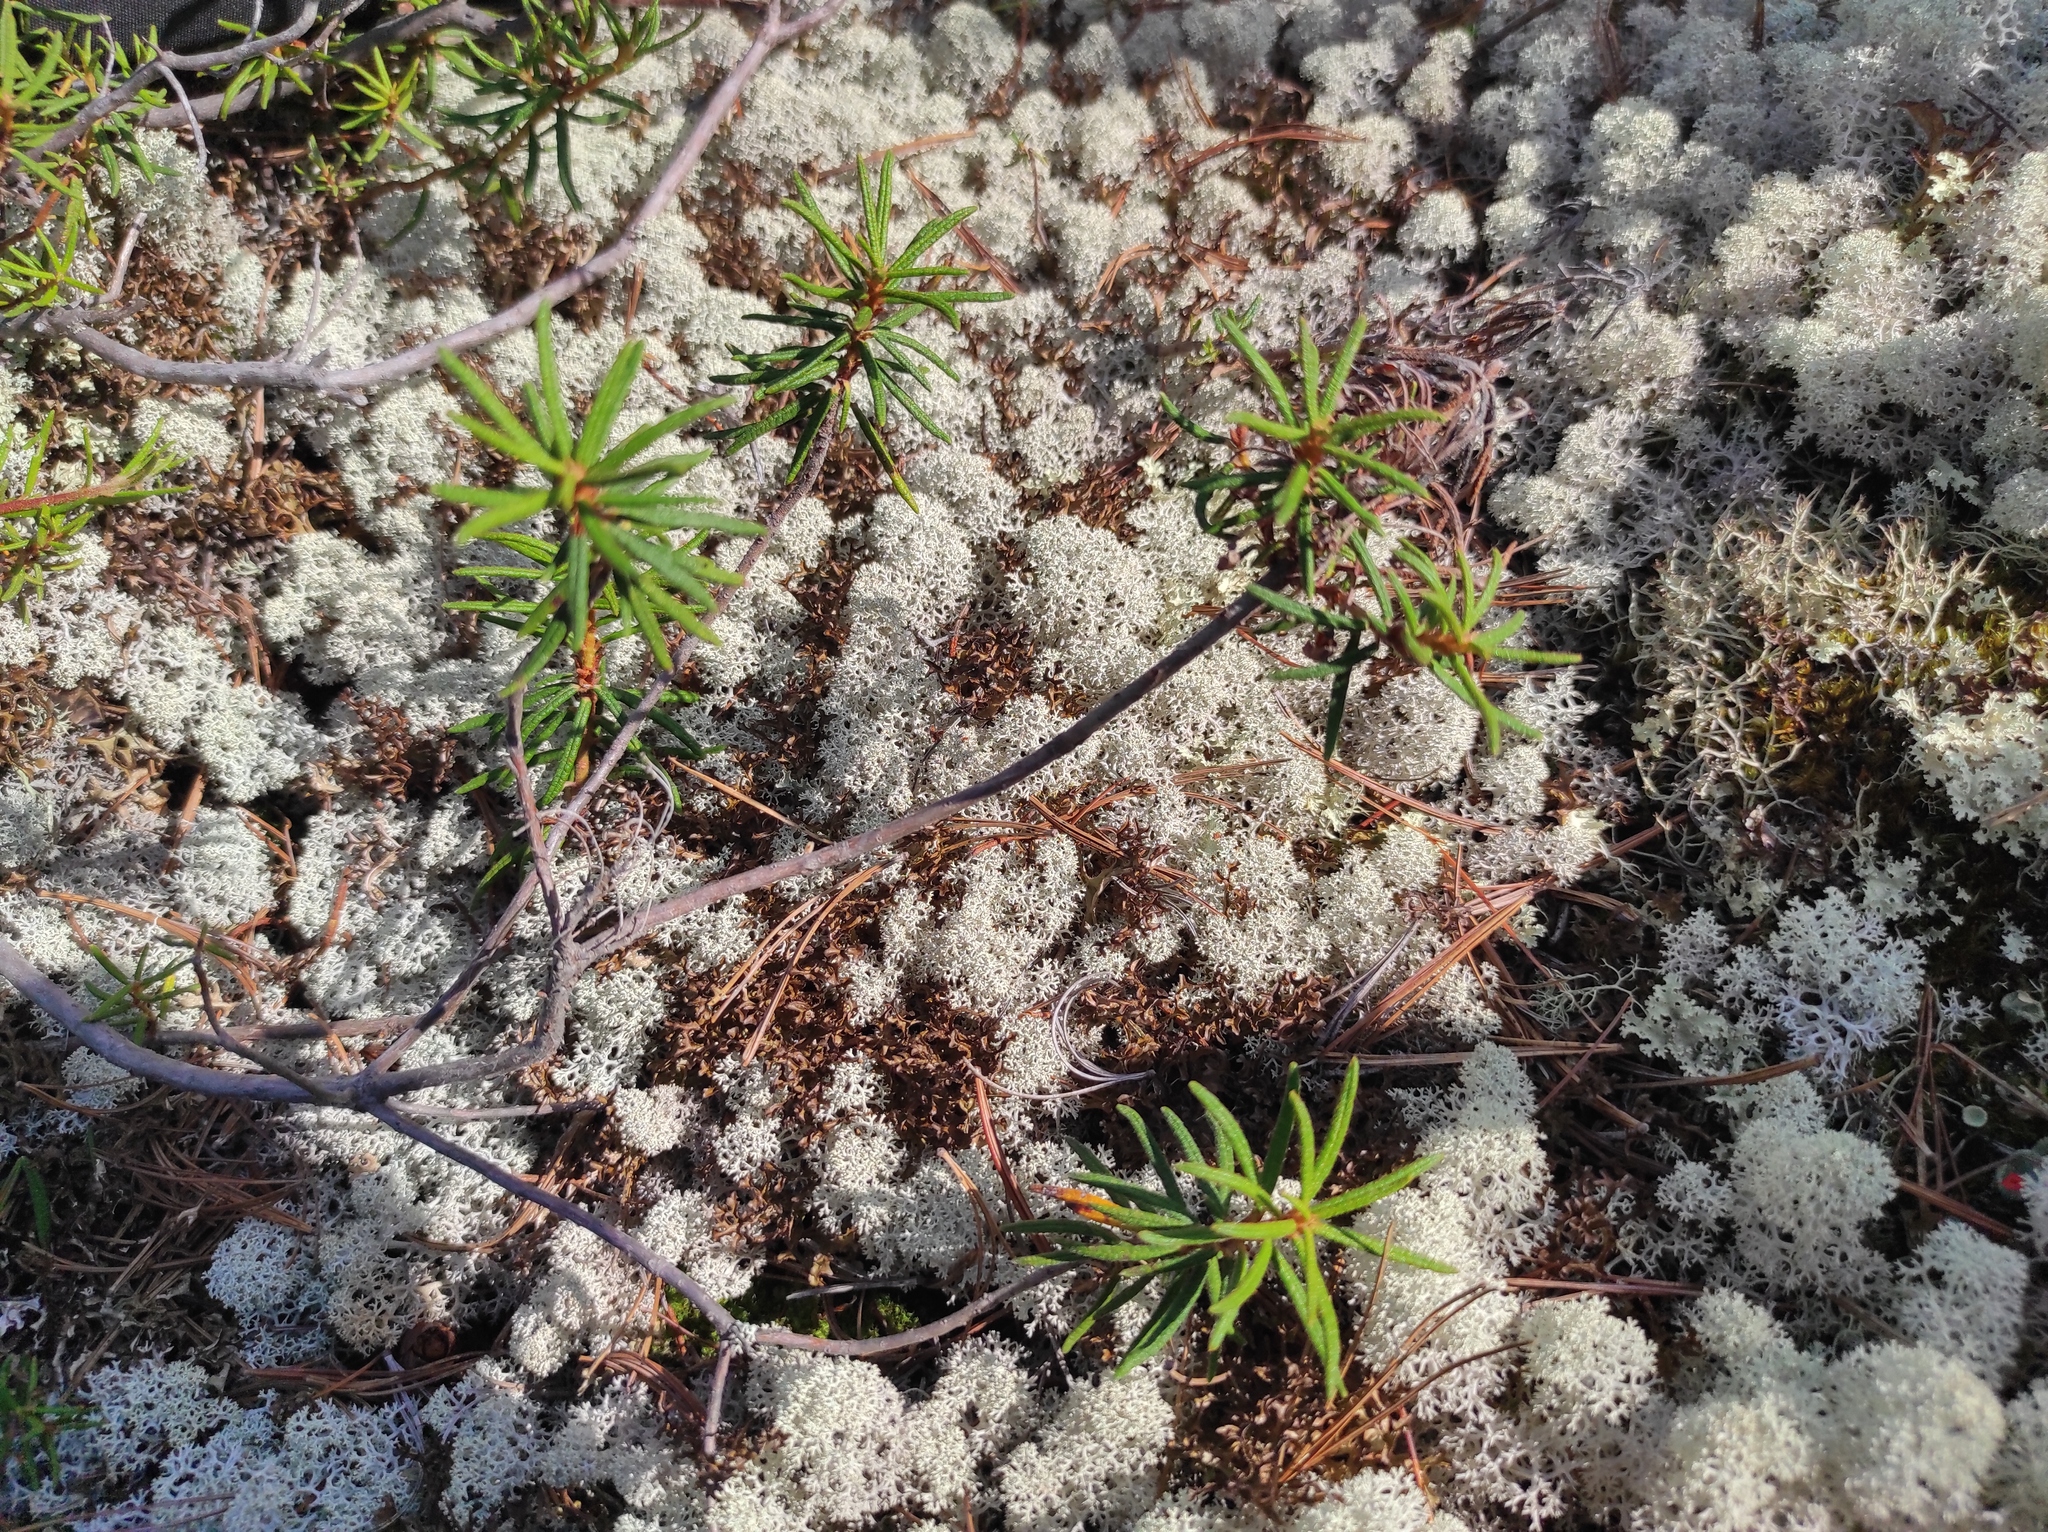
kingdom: Plantae
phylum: Tracheophyta
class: Magnoliopsida
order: Ericales
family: Ericaceae
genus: Rhododendron
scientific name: Rhododendron tomentosum
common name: Marsh labrador tea
